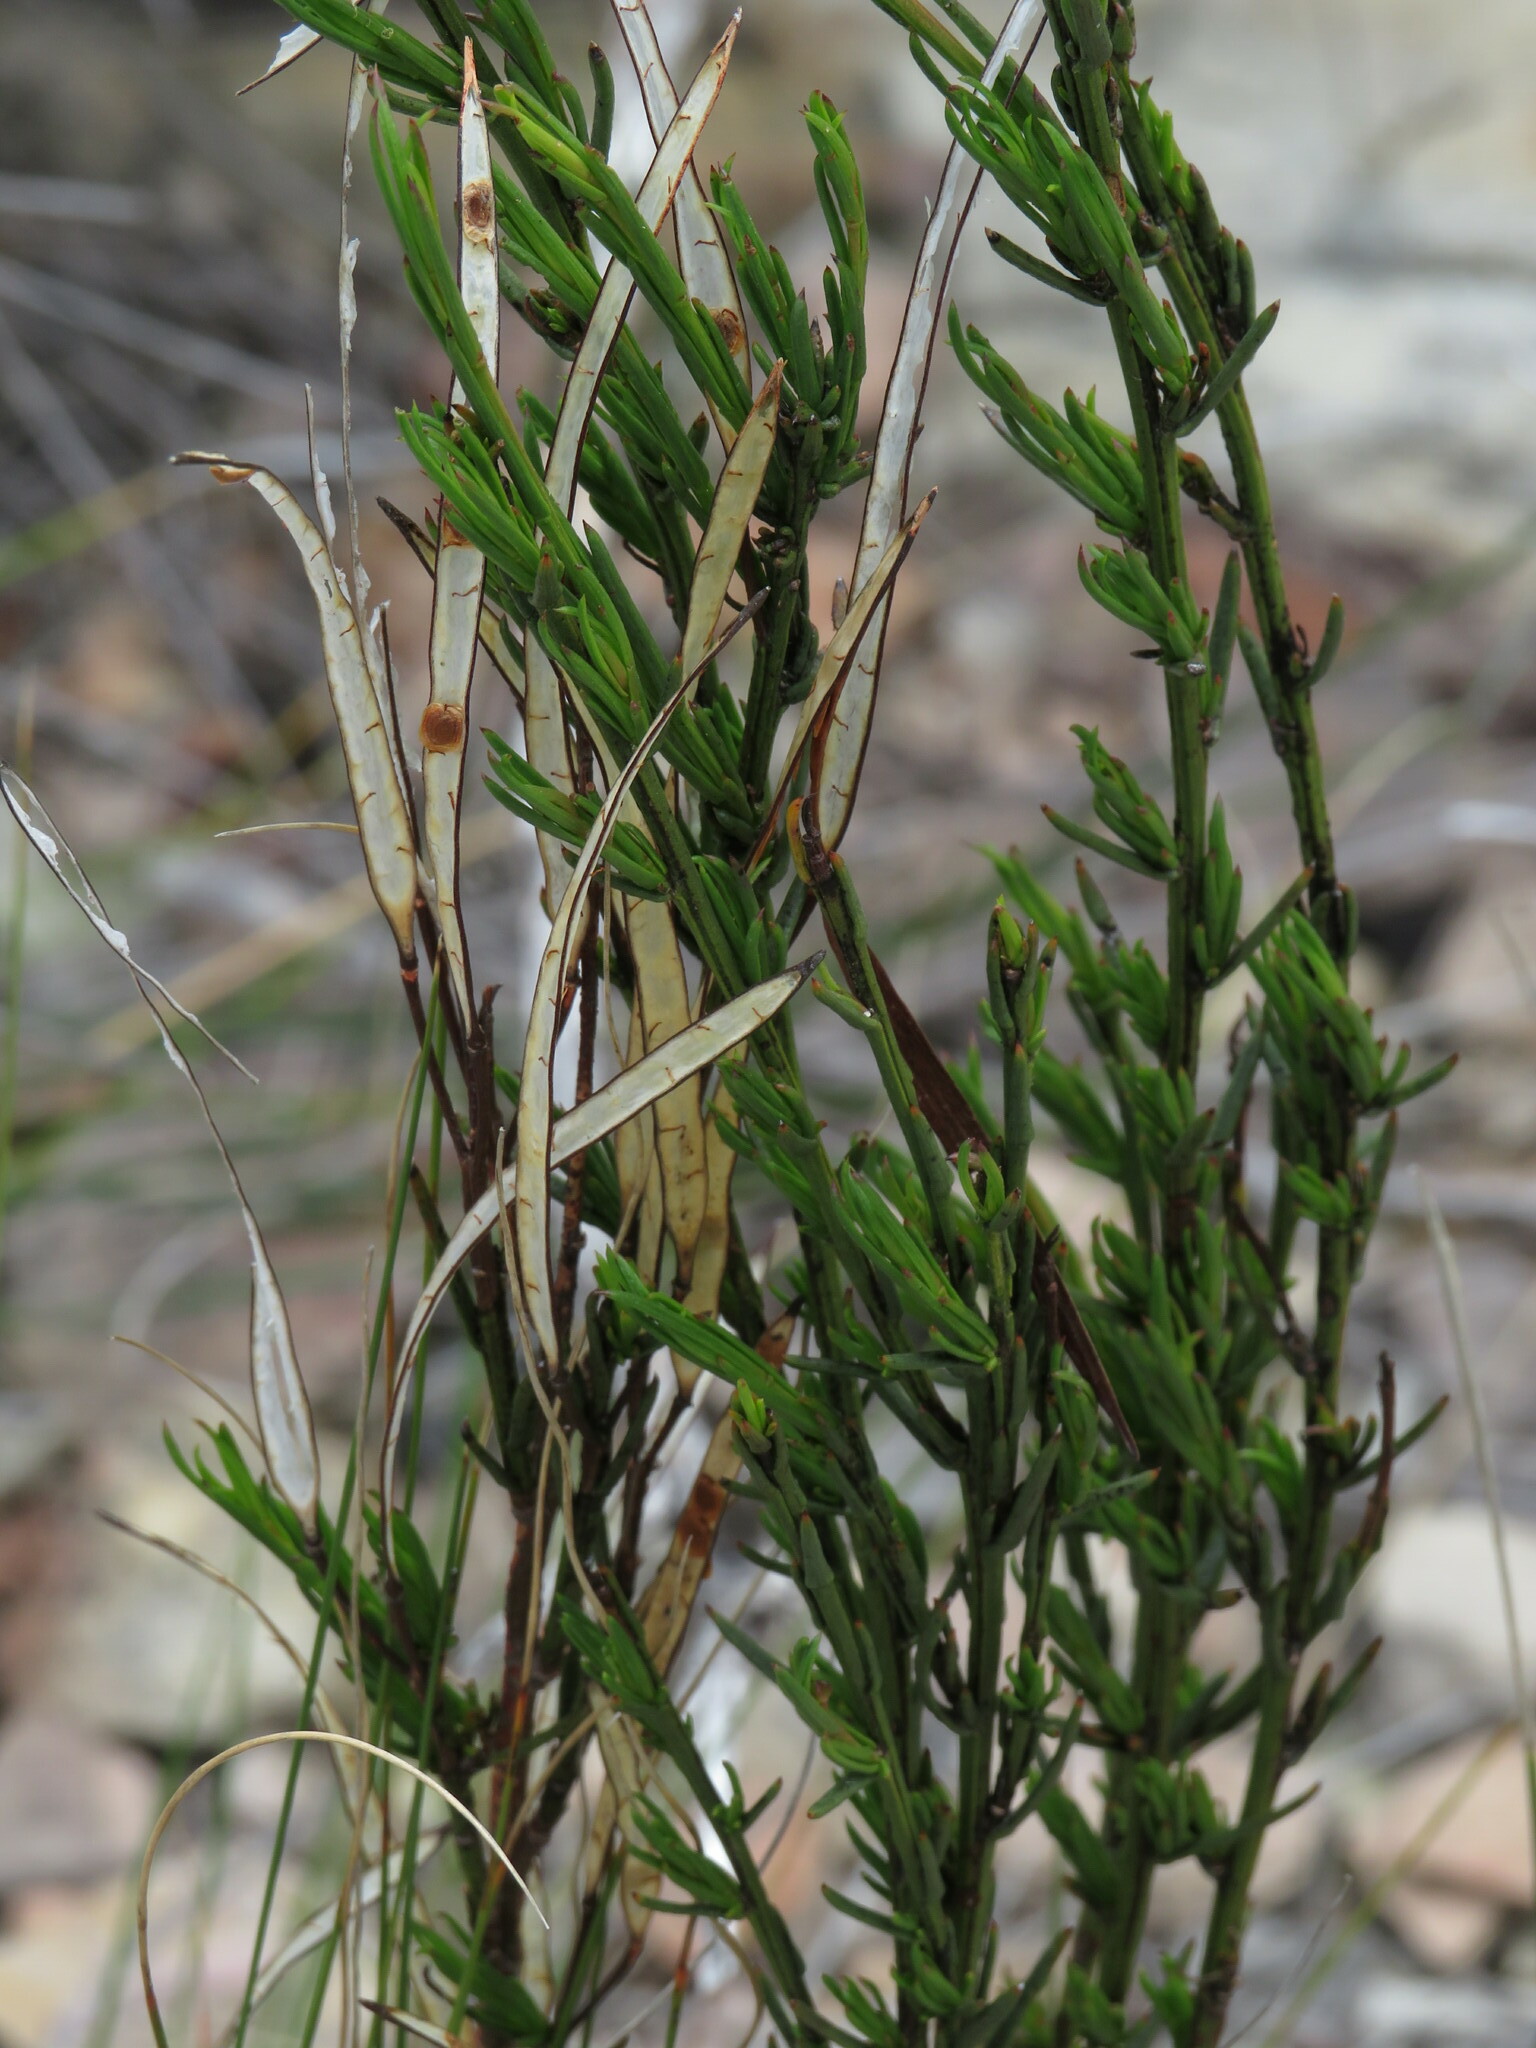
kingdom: Plantae
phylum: Tracheophyta
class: Magnoliopsida
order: Brassicales
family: Brassicaceae
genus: Heliophila
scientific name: Heliophila scoparia
